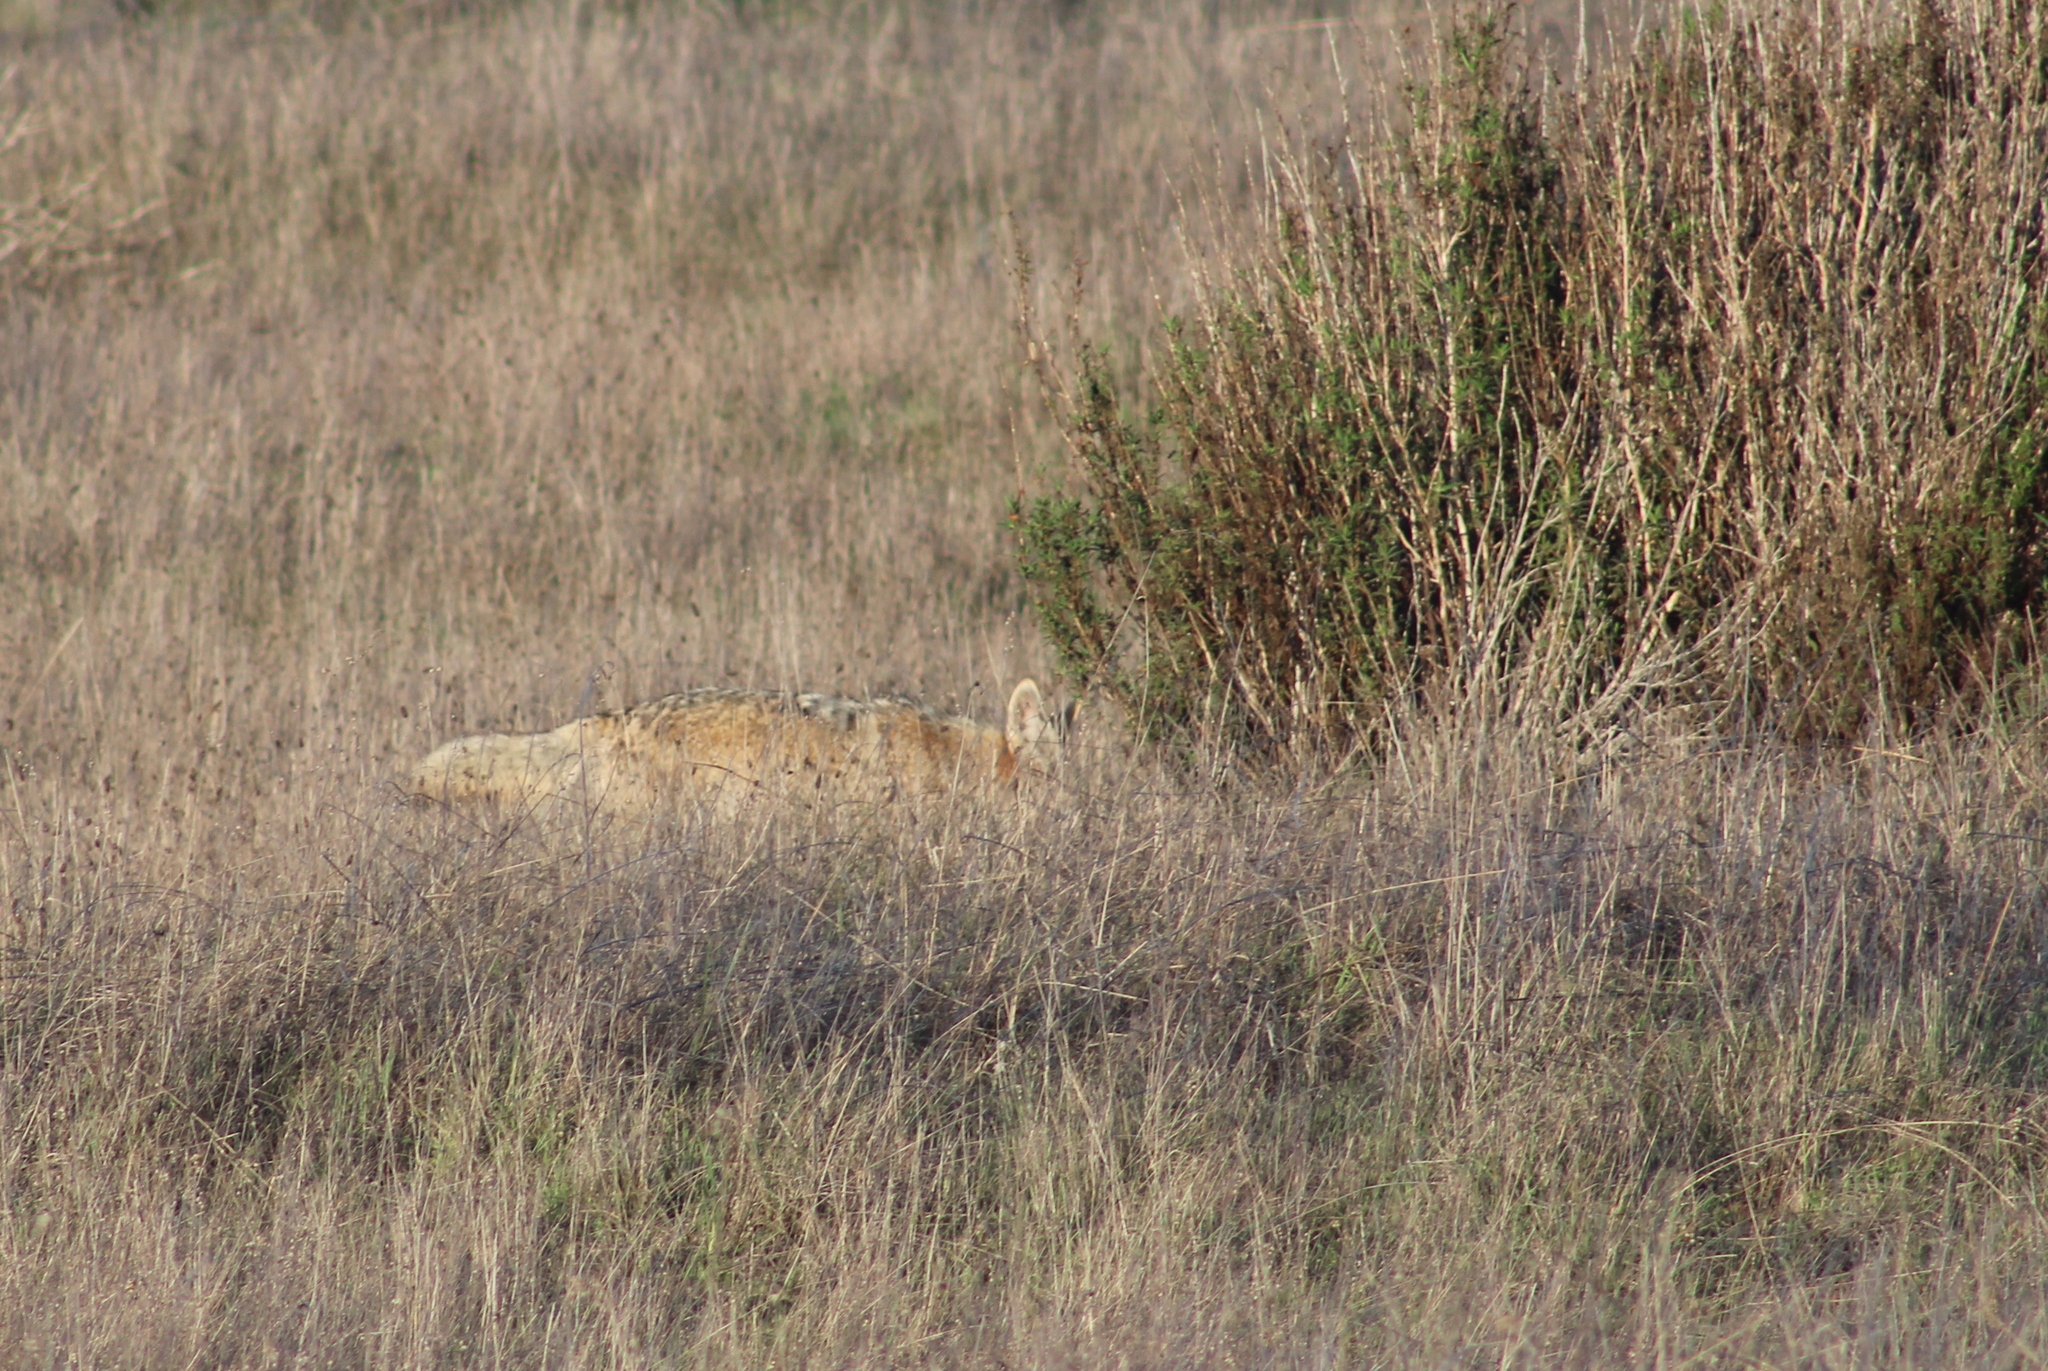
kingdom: Animalia
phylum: Chordata
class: Mammalia
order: Carnivora
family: Canidae
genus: Canis
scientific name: Canis latrans
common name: Coyote
